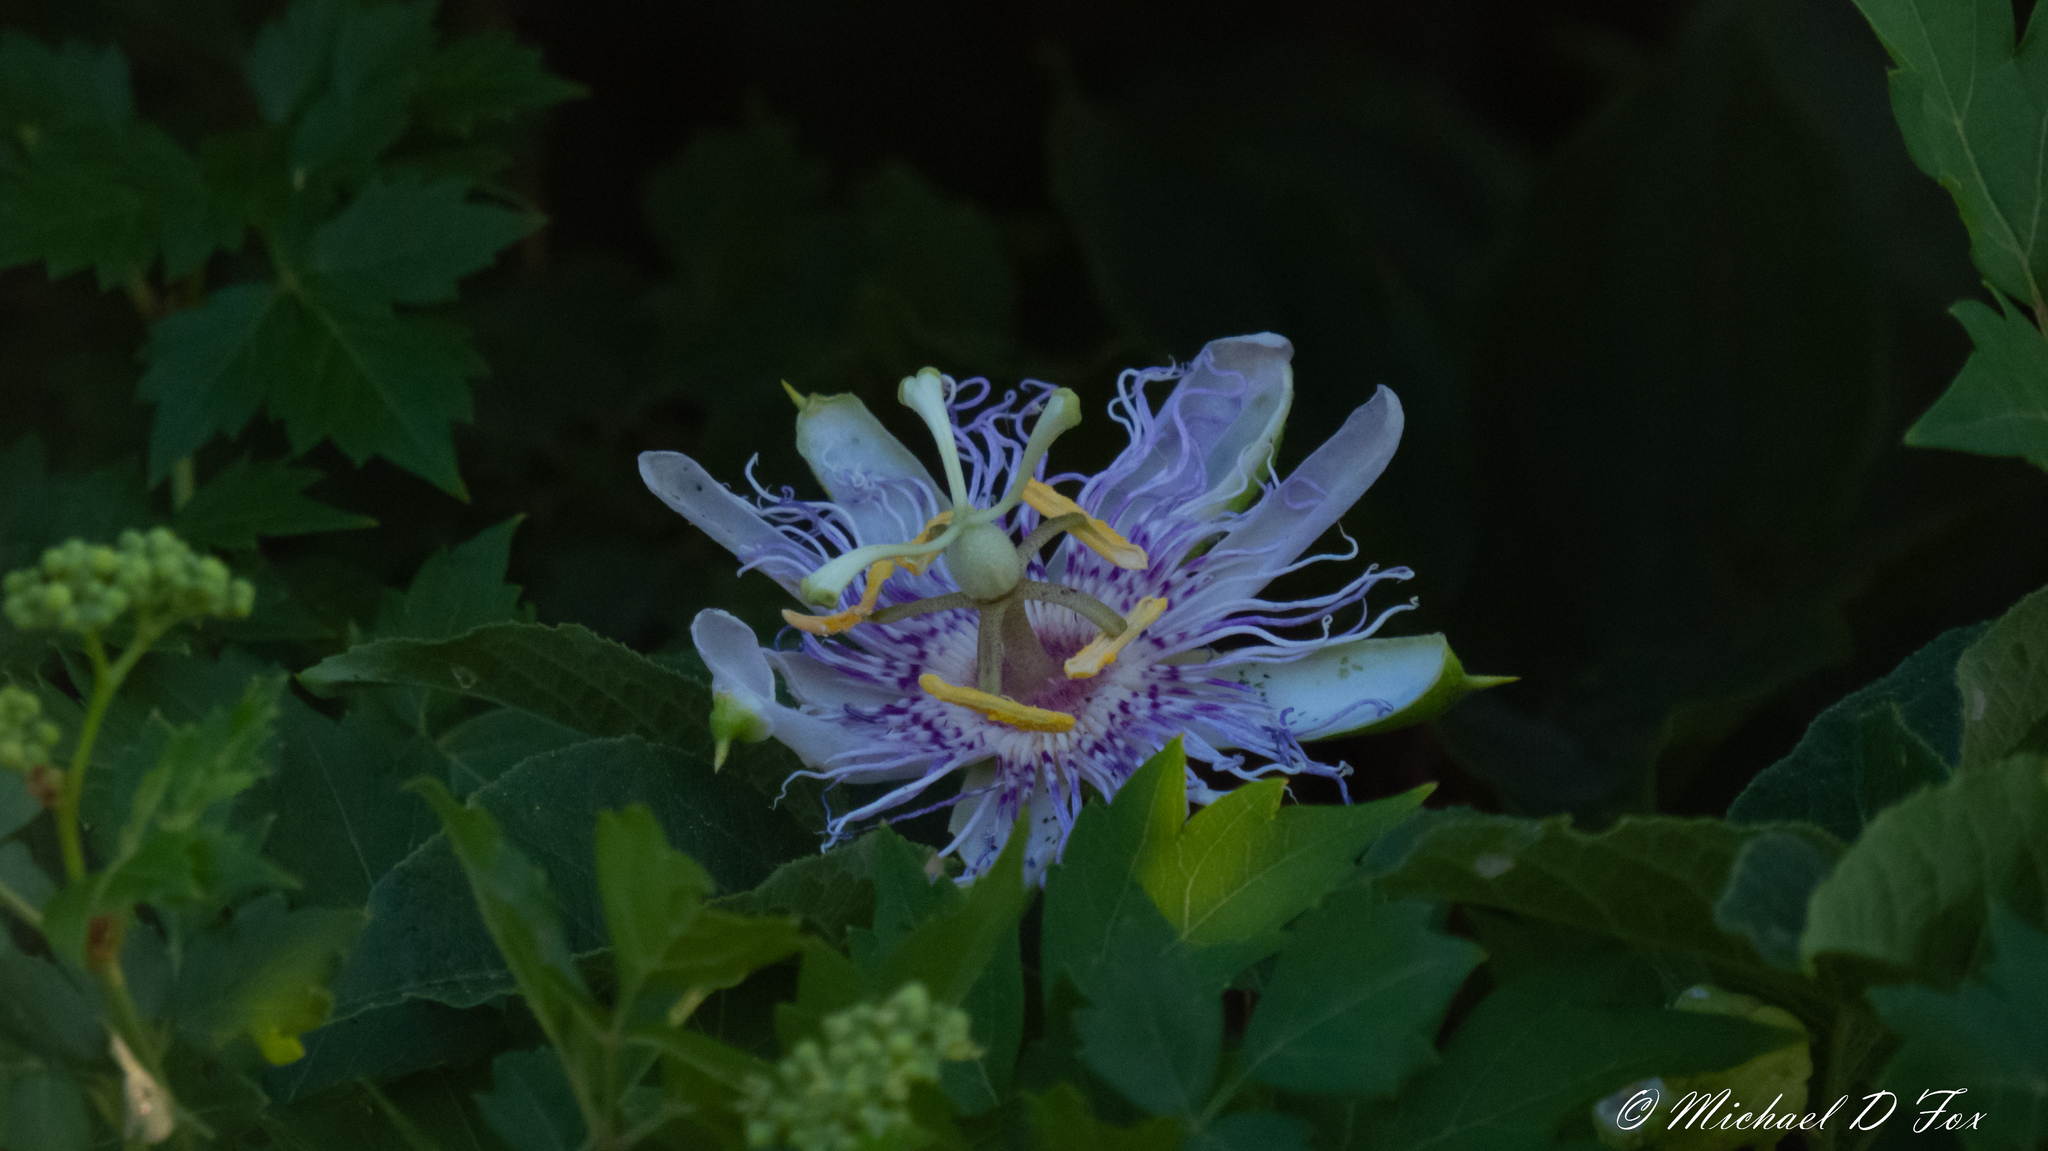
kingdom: Plantae
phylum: Tracheophyta
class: Magnoliopsida
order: Malpighiales
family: Passifloraceae
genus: Passiflora
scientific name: Passiflora incarnata
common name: Apricot-vine
